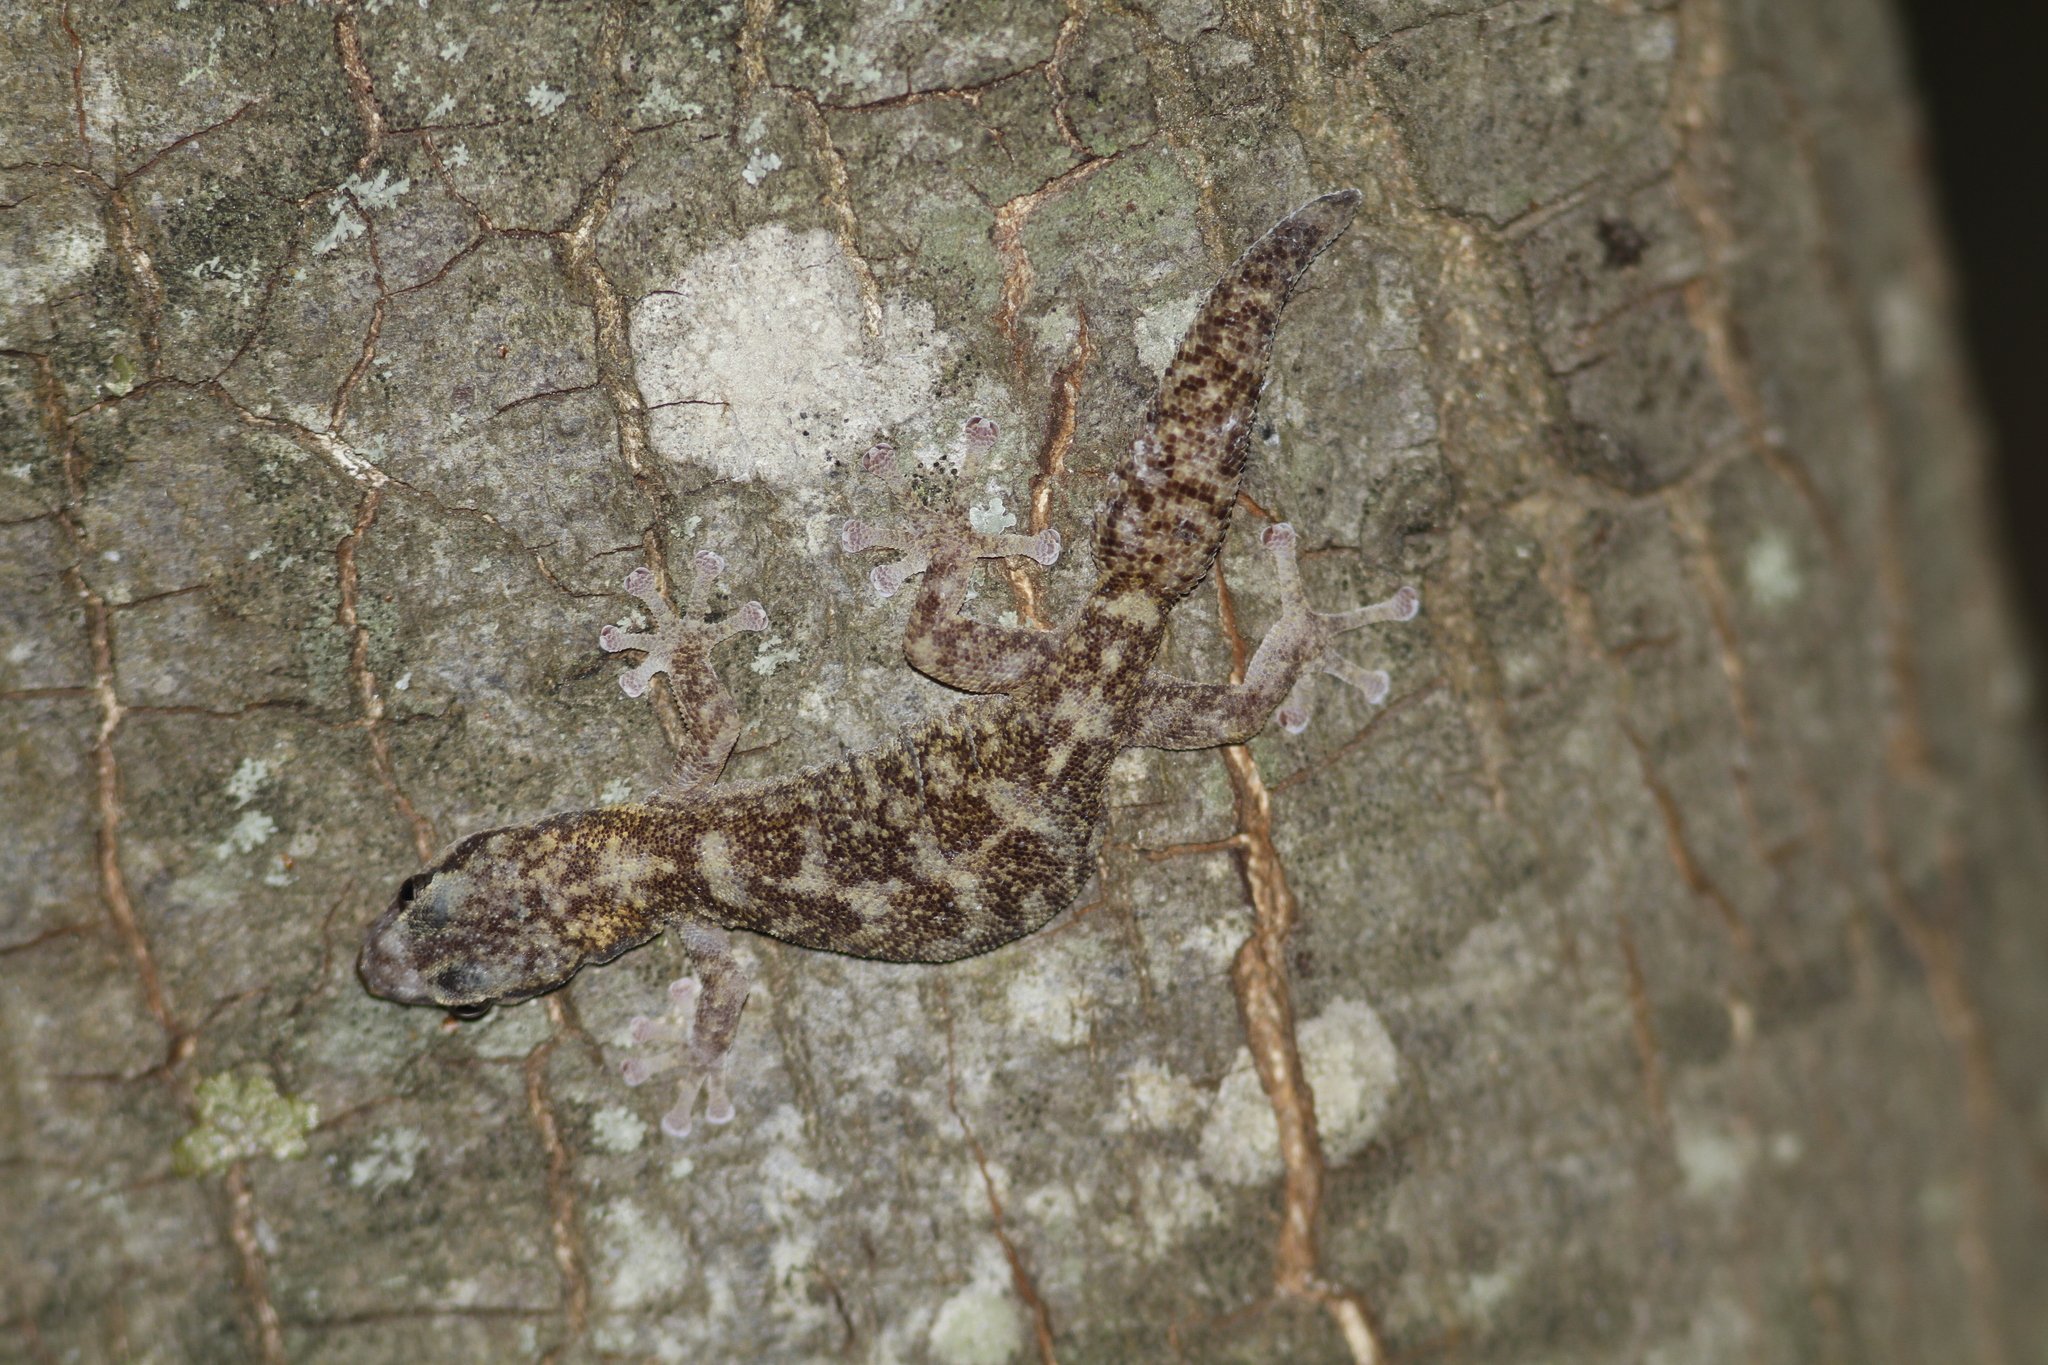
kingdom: Animalia
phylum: Chordata
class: Squamata
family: Sphaerodactylidae
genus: Euleptes
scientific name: Euleptes europaea
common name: English common name not available
